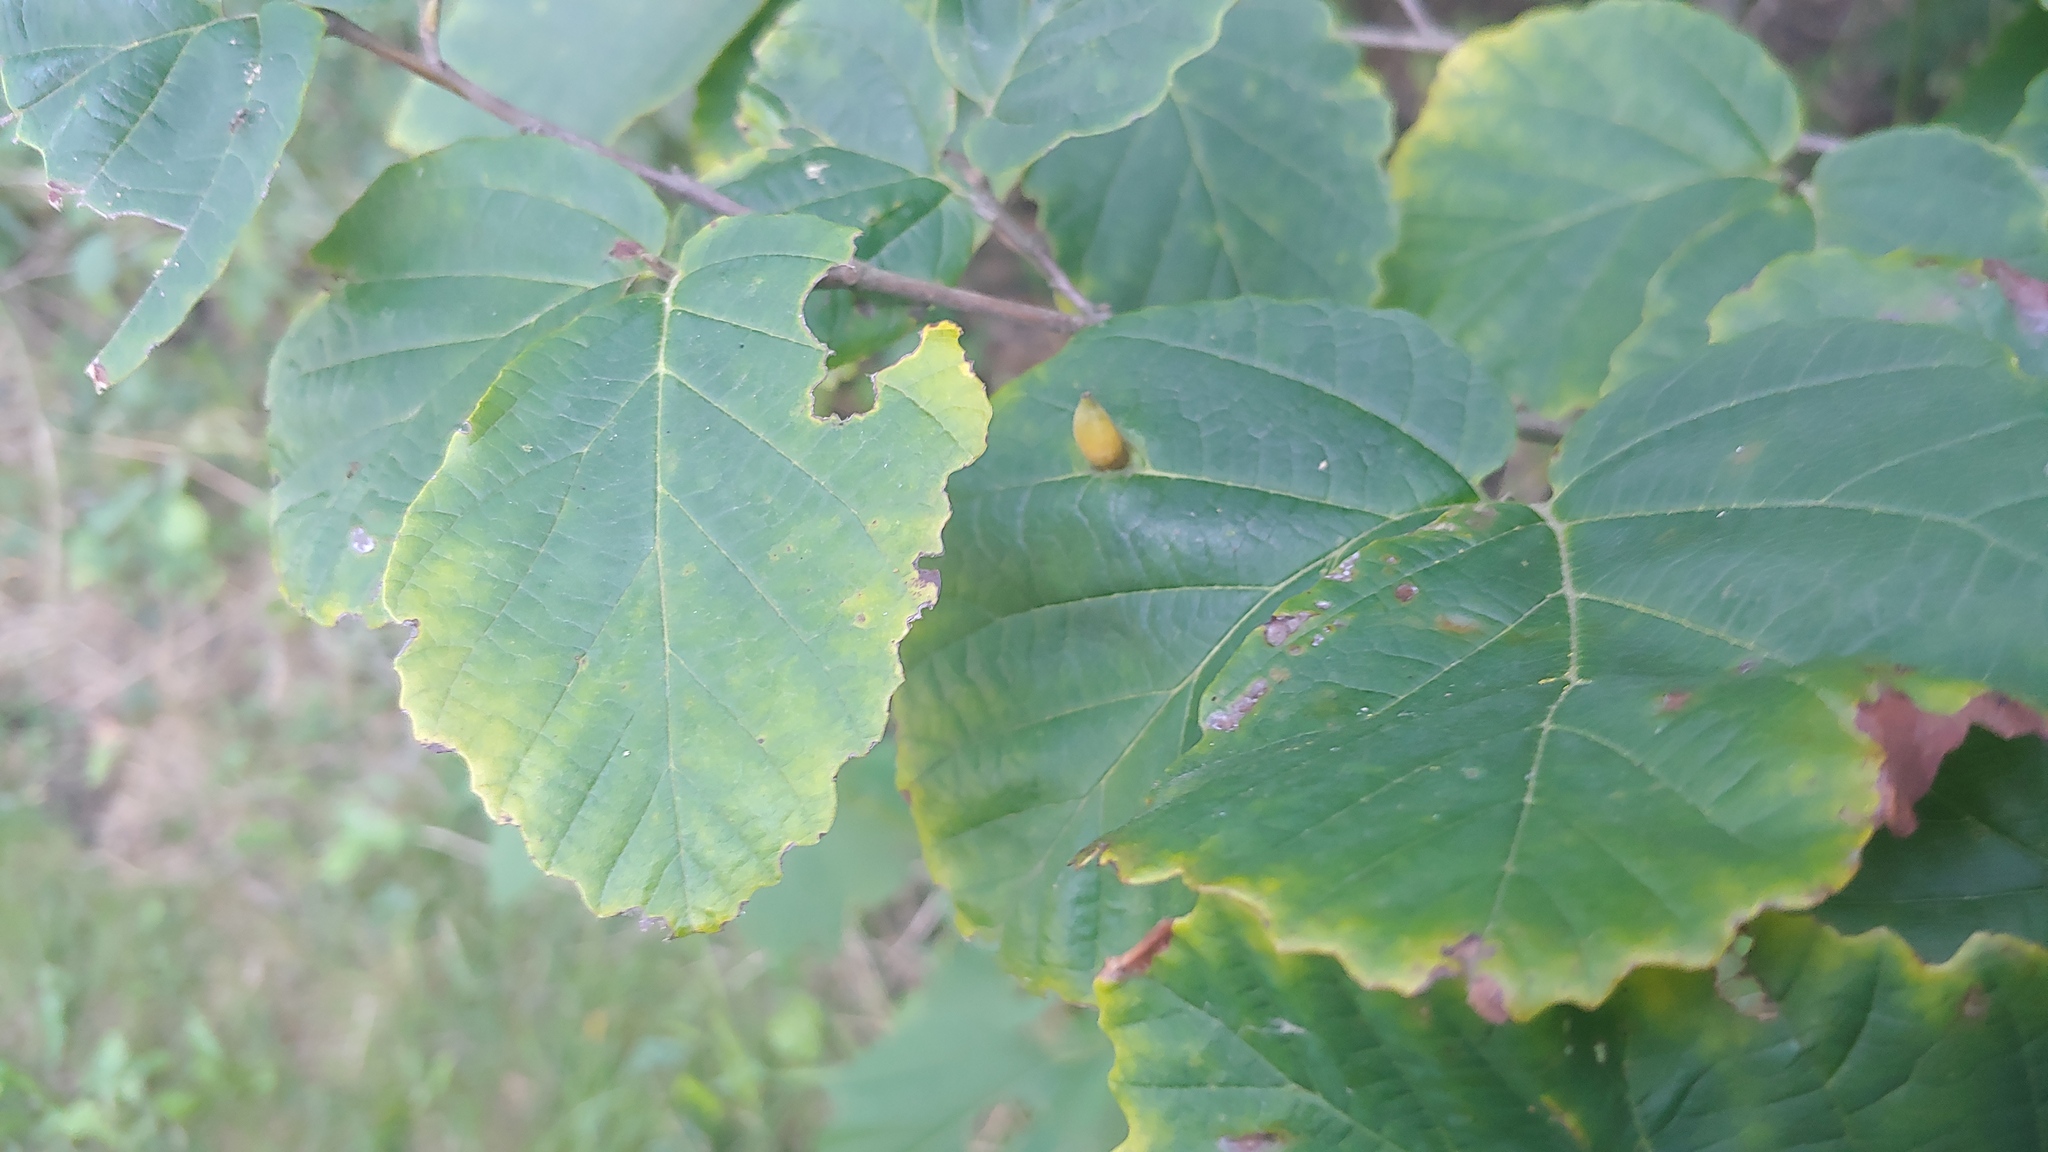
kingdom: Animalia
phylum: Arthropoda
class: Insecta
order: Hemiptera
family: Aphididae
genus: Hormaphis
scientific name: Hormaphis hamamelidis
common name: Witch-hazel cone gall aphid
